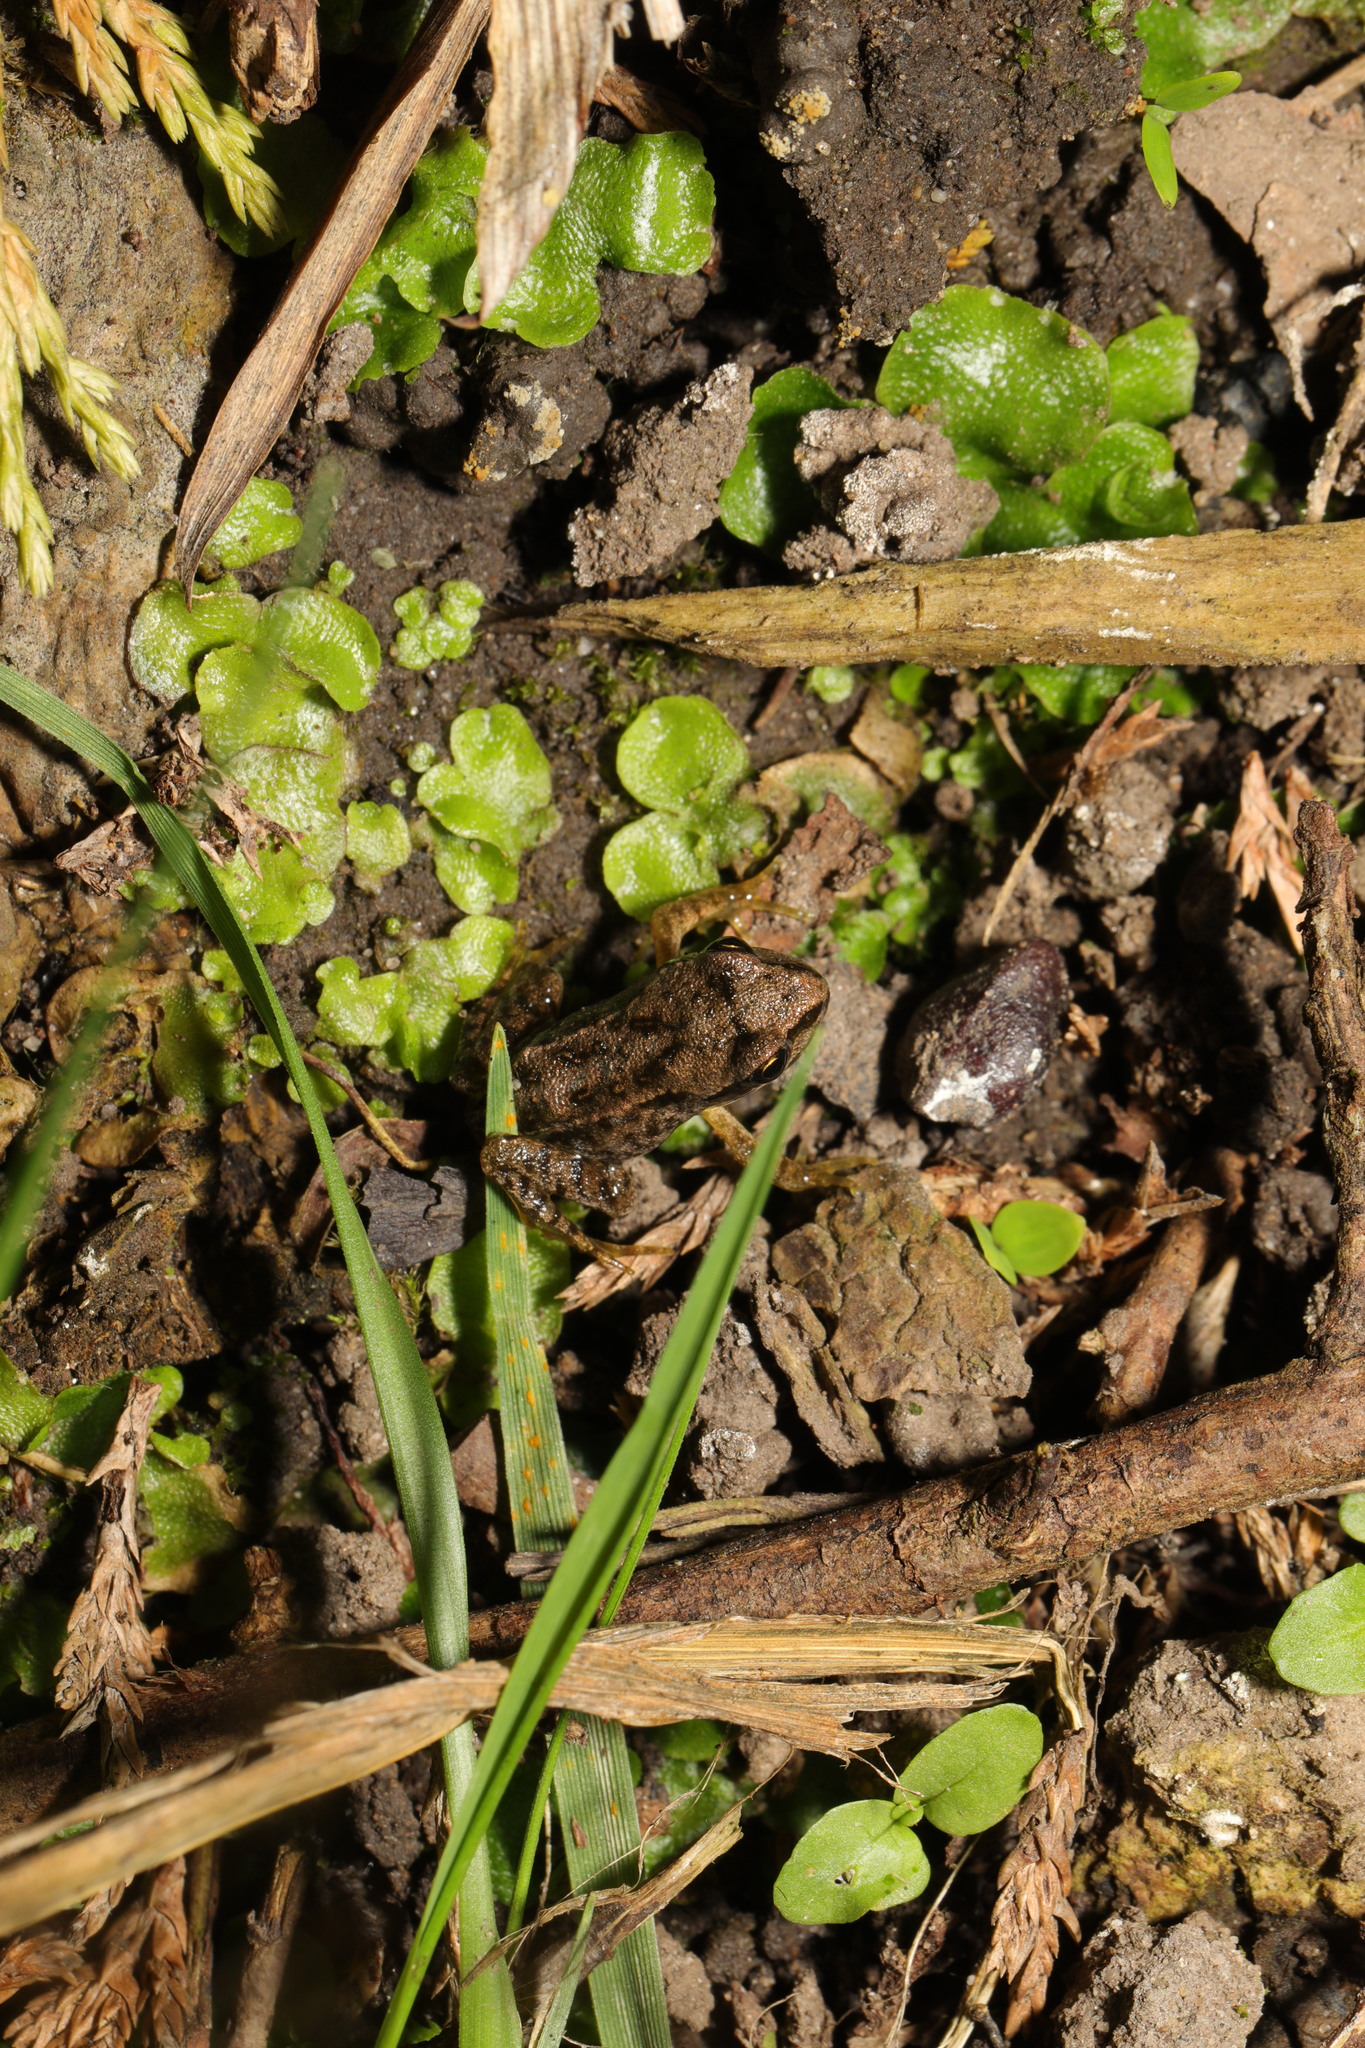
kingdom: Animalia
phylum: Chordata
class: Amphibia
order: Anura
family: Ranidae
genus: Rana
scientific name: Rana temporaria
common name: Common frog
